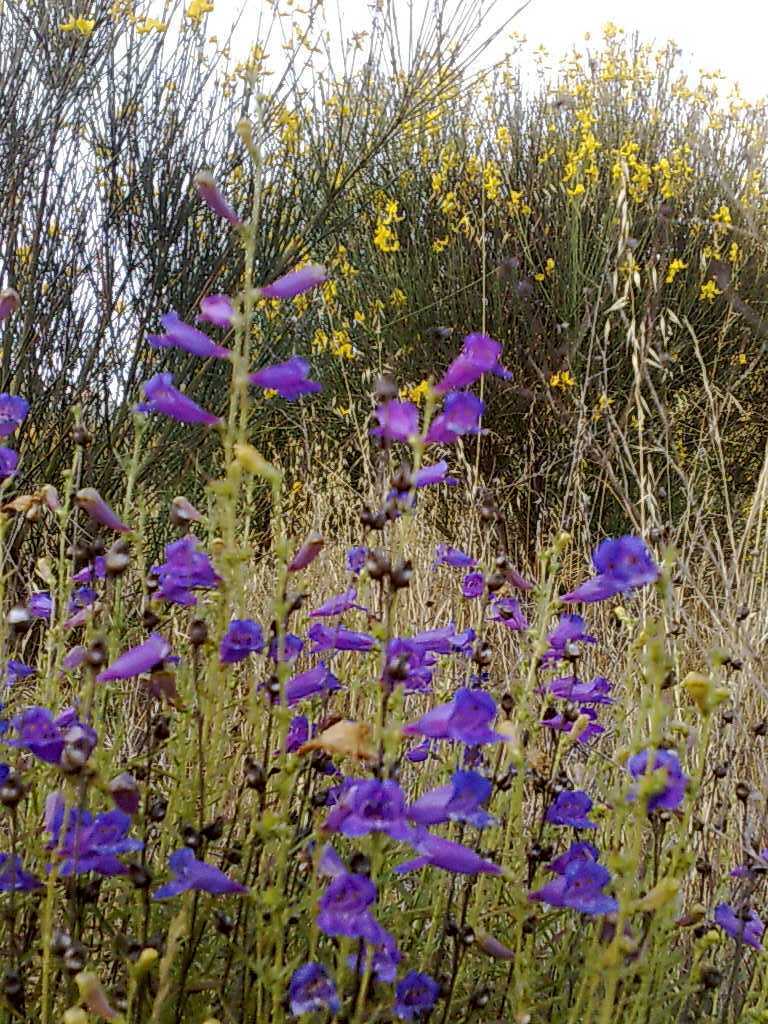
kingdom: Plantae
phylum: Tracheophyta
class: Magnoliopsida
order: Lamiales
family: Plantaginaceae
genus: Penstemon
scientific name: Penstemon heterophyllus
